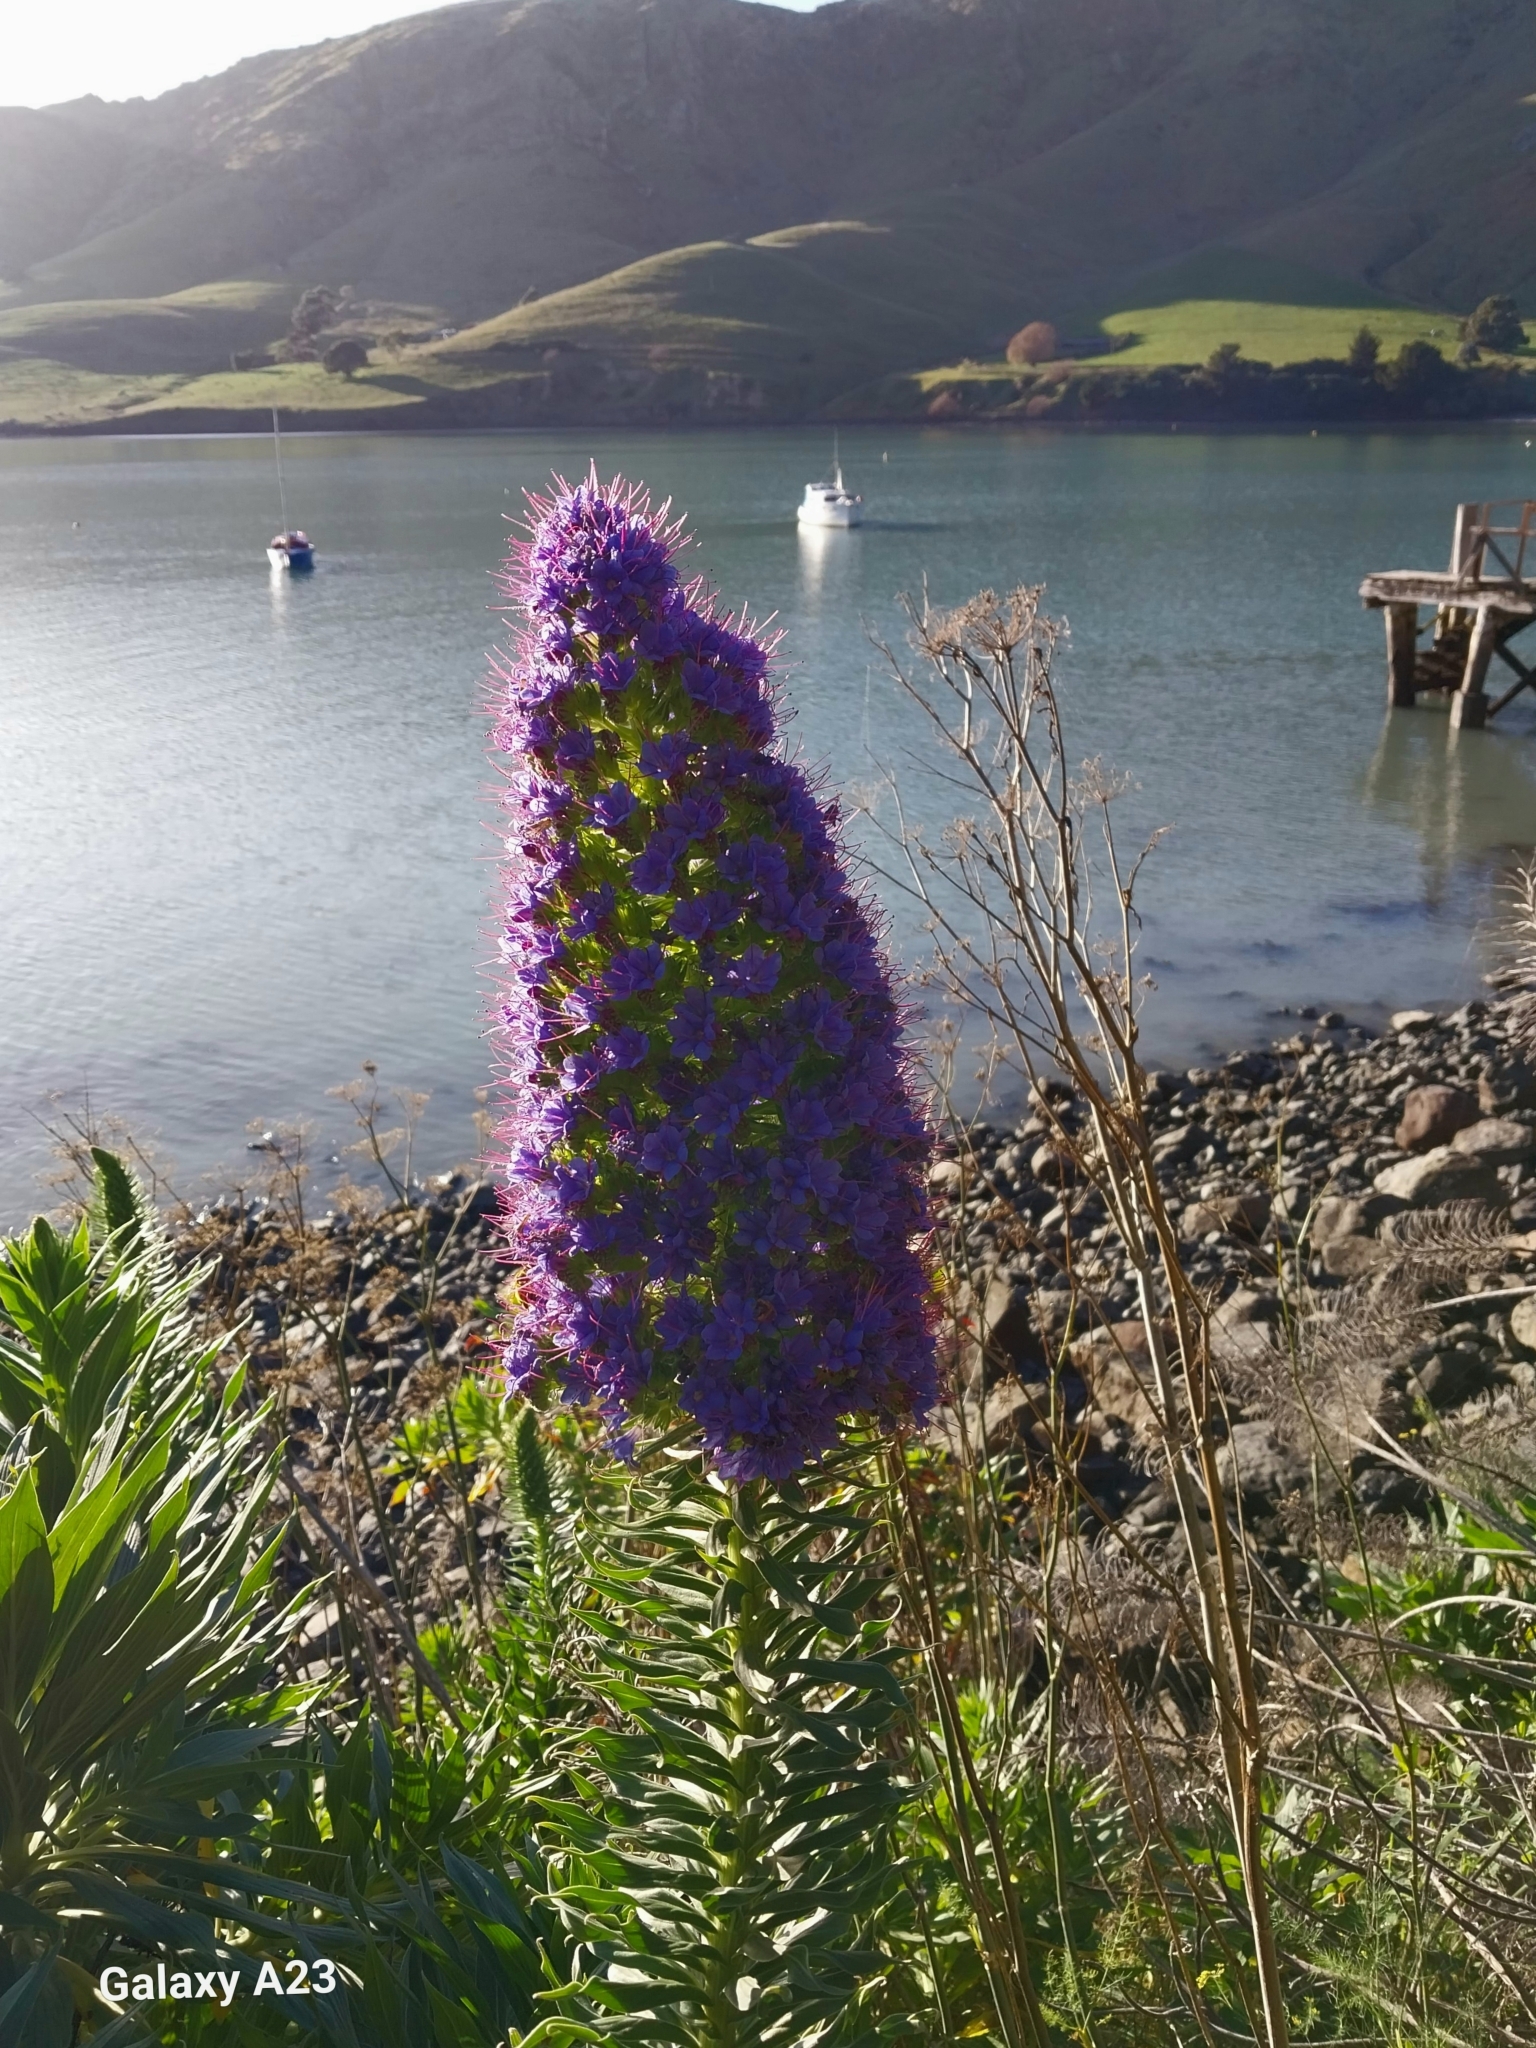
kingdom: Plantae
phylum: Tracheophyta
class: Magnoliopsida
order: Boraginales
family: Boraginaceae
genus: Echium
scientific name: Echium candicans
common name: Pride of madeira
